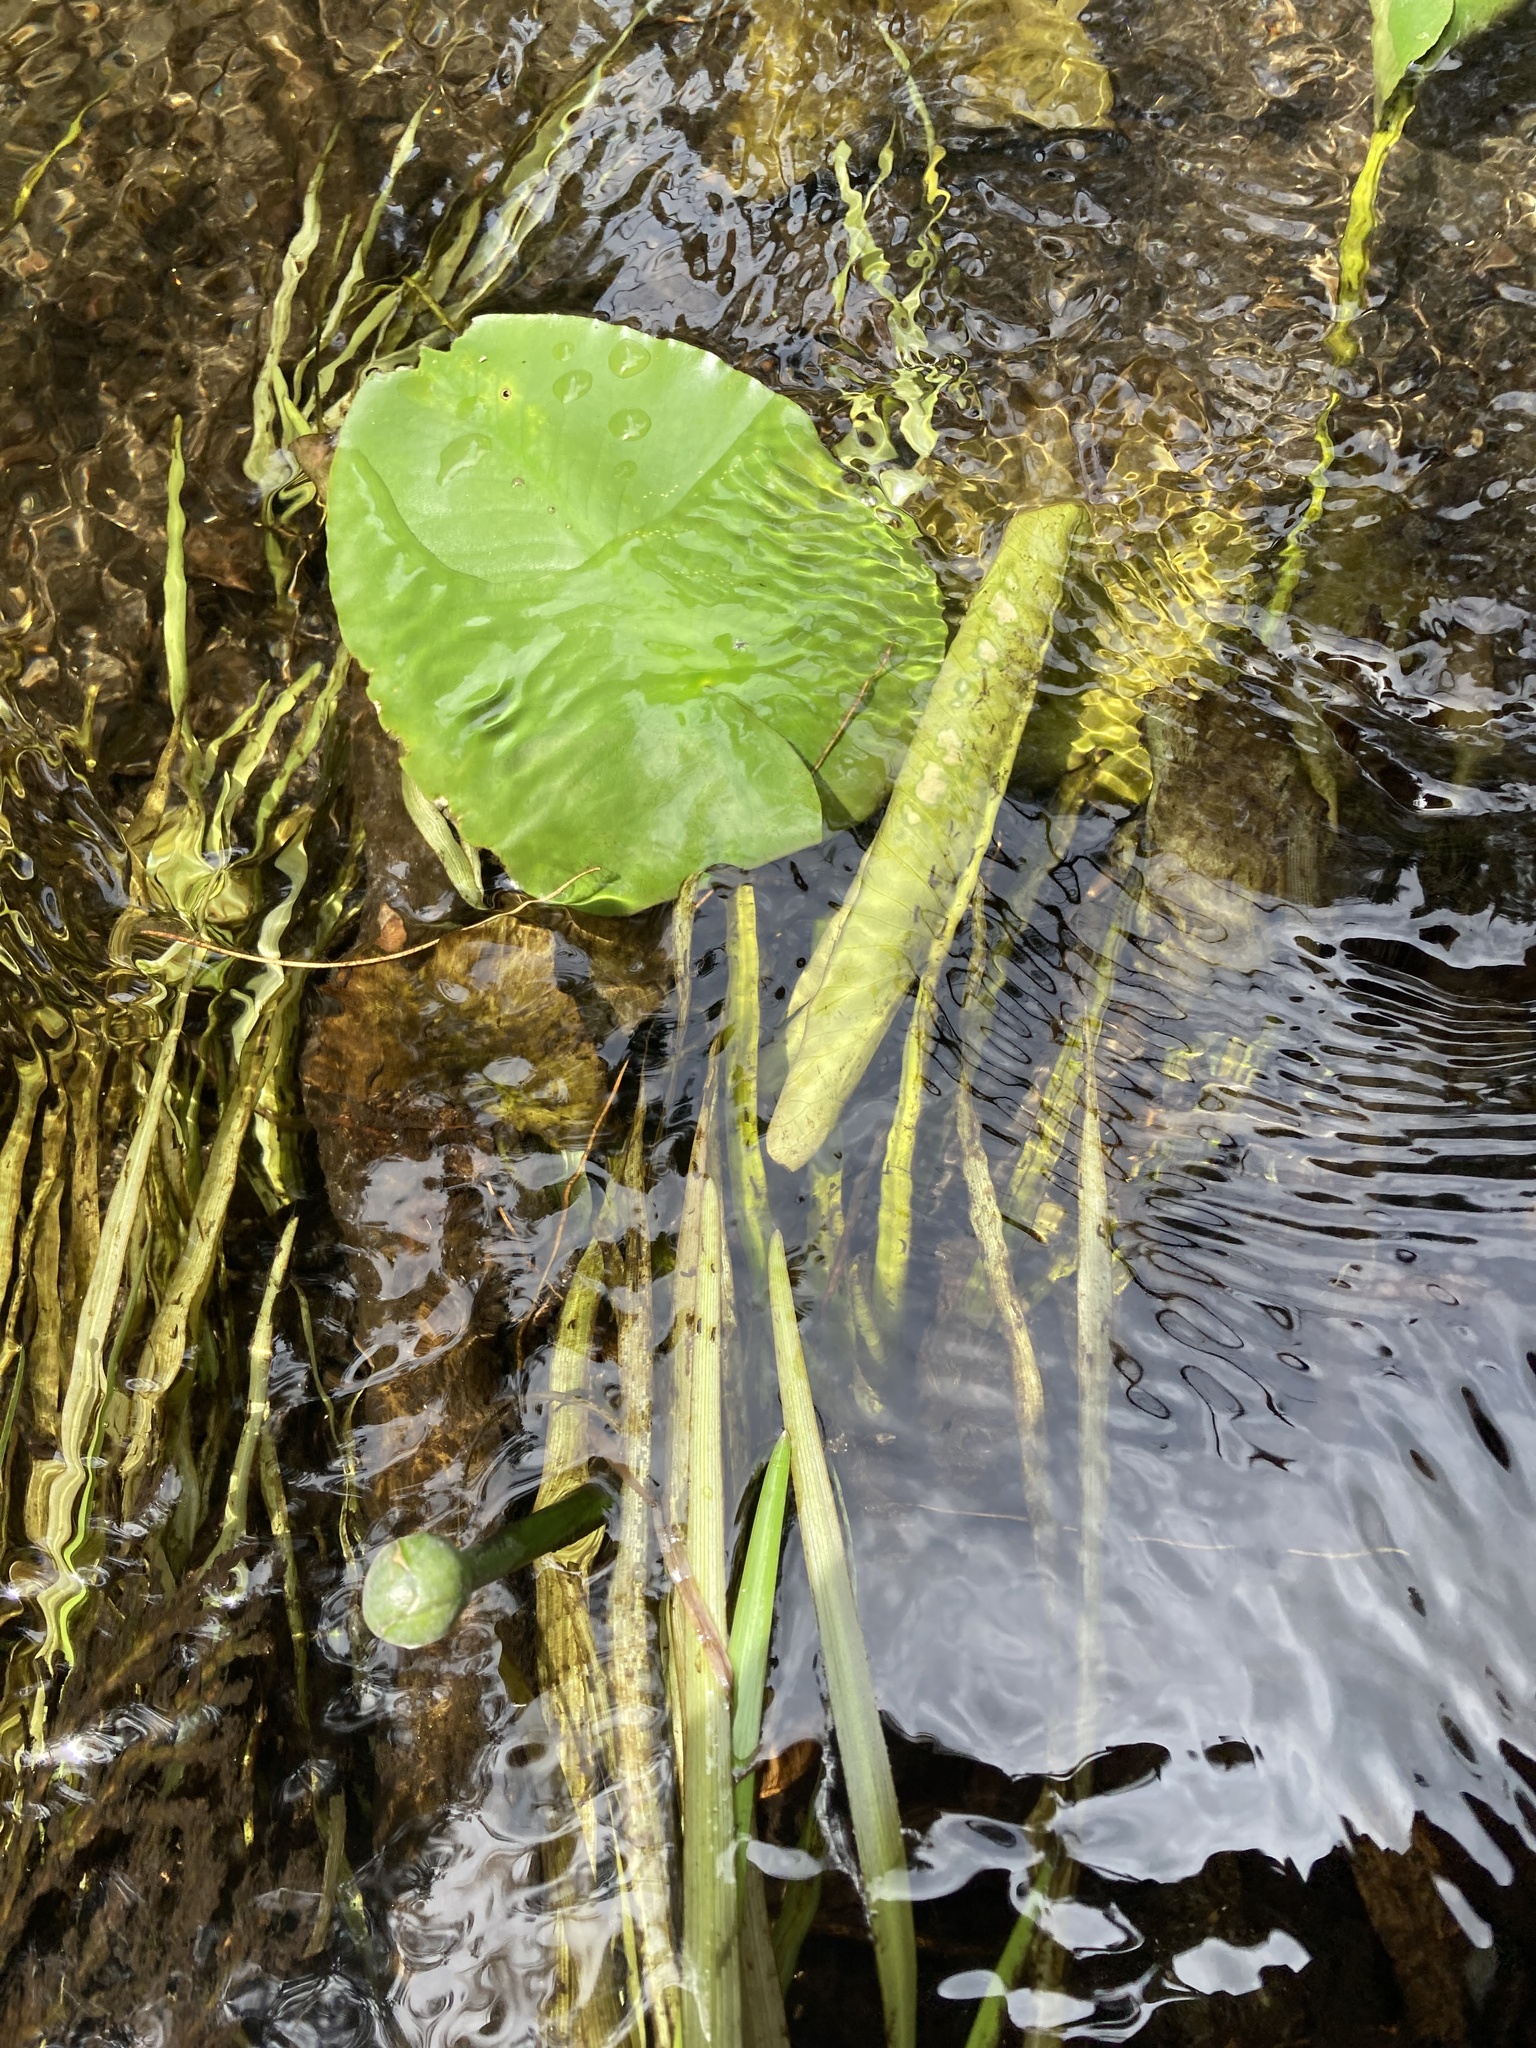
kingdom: Plantae
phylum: Tracheophyta
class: Magnoliopsida
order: Nymphaeales
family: Nymphaeaceae
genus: Nuphar
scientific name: Nuphar variegata
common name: Beaver-root
